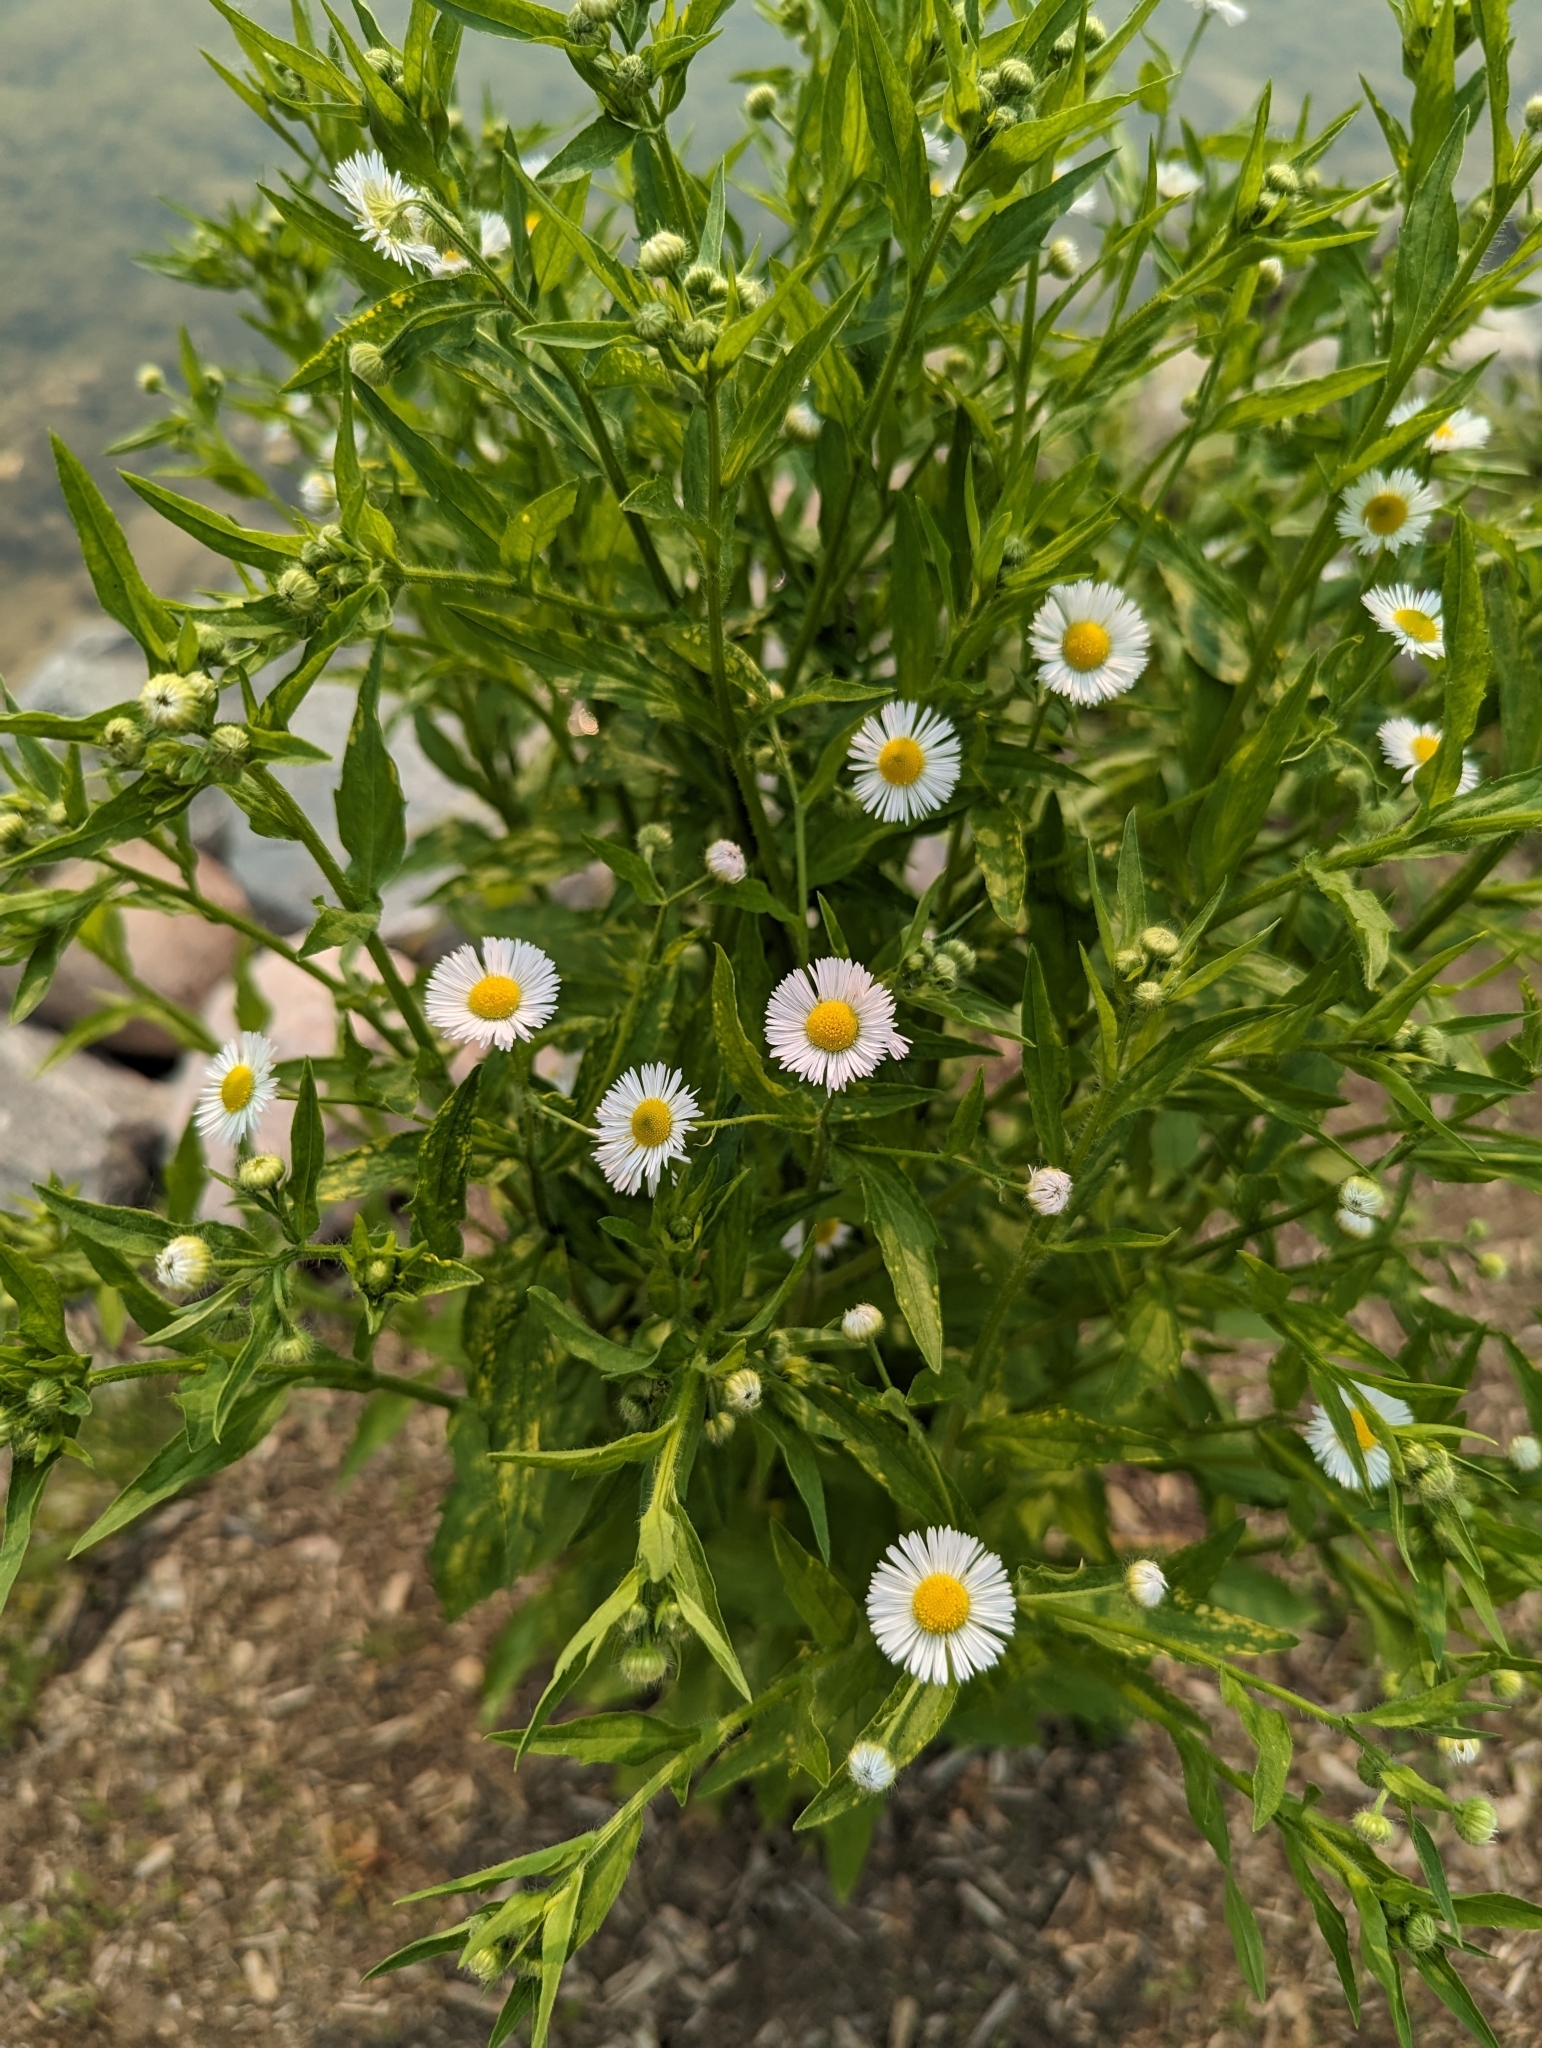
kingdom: Plantae
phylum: Tracheophyta
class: Magnoliopsida
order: Asterales
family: Asteraceae
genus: Erigeron
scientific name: Erigeron annuus
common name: Tall fleabane
